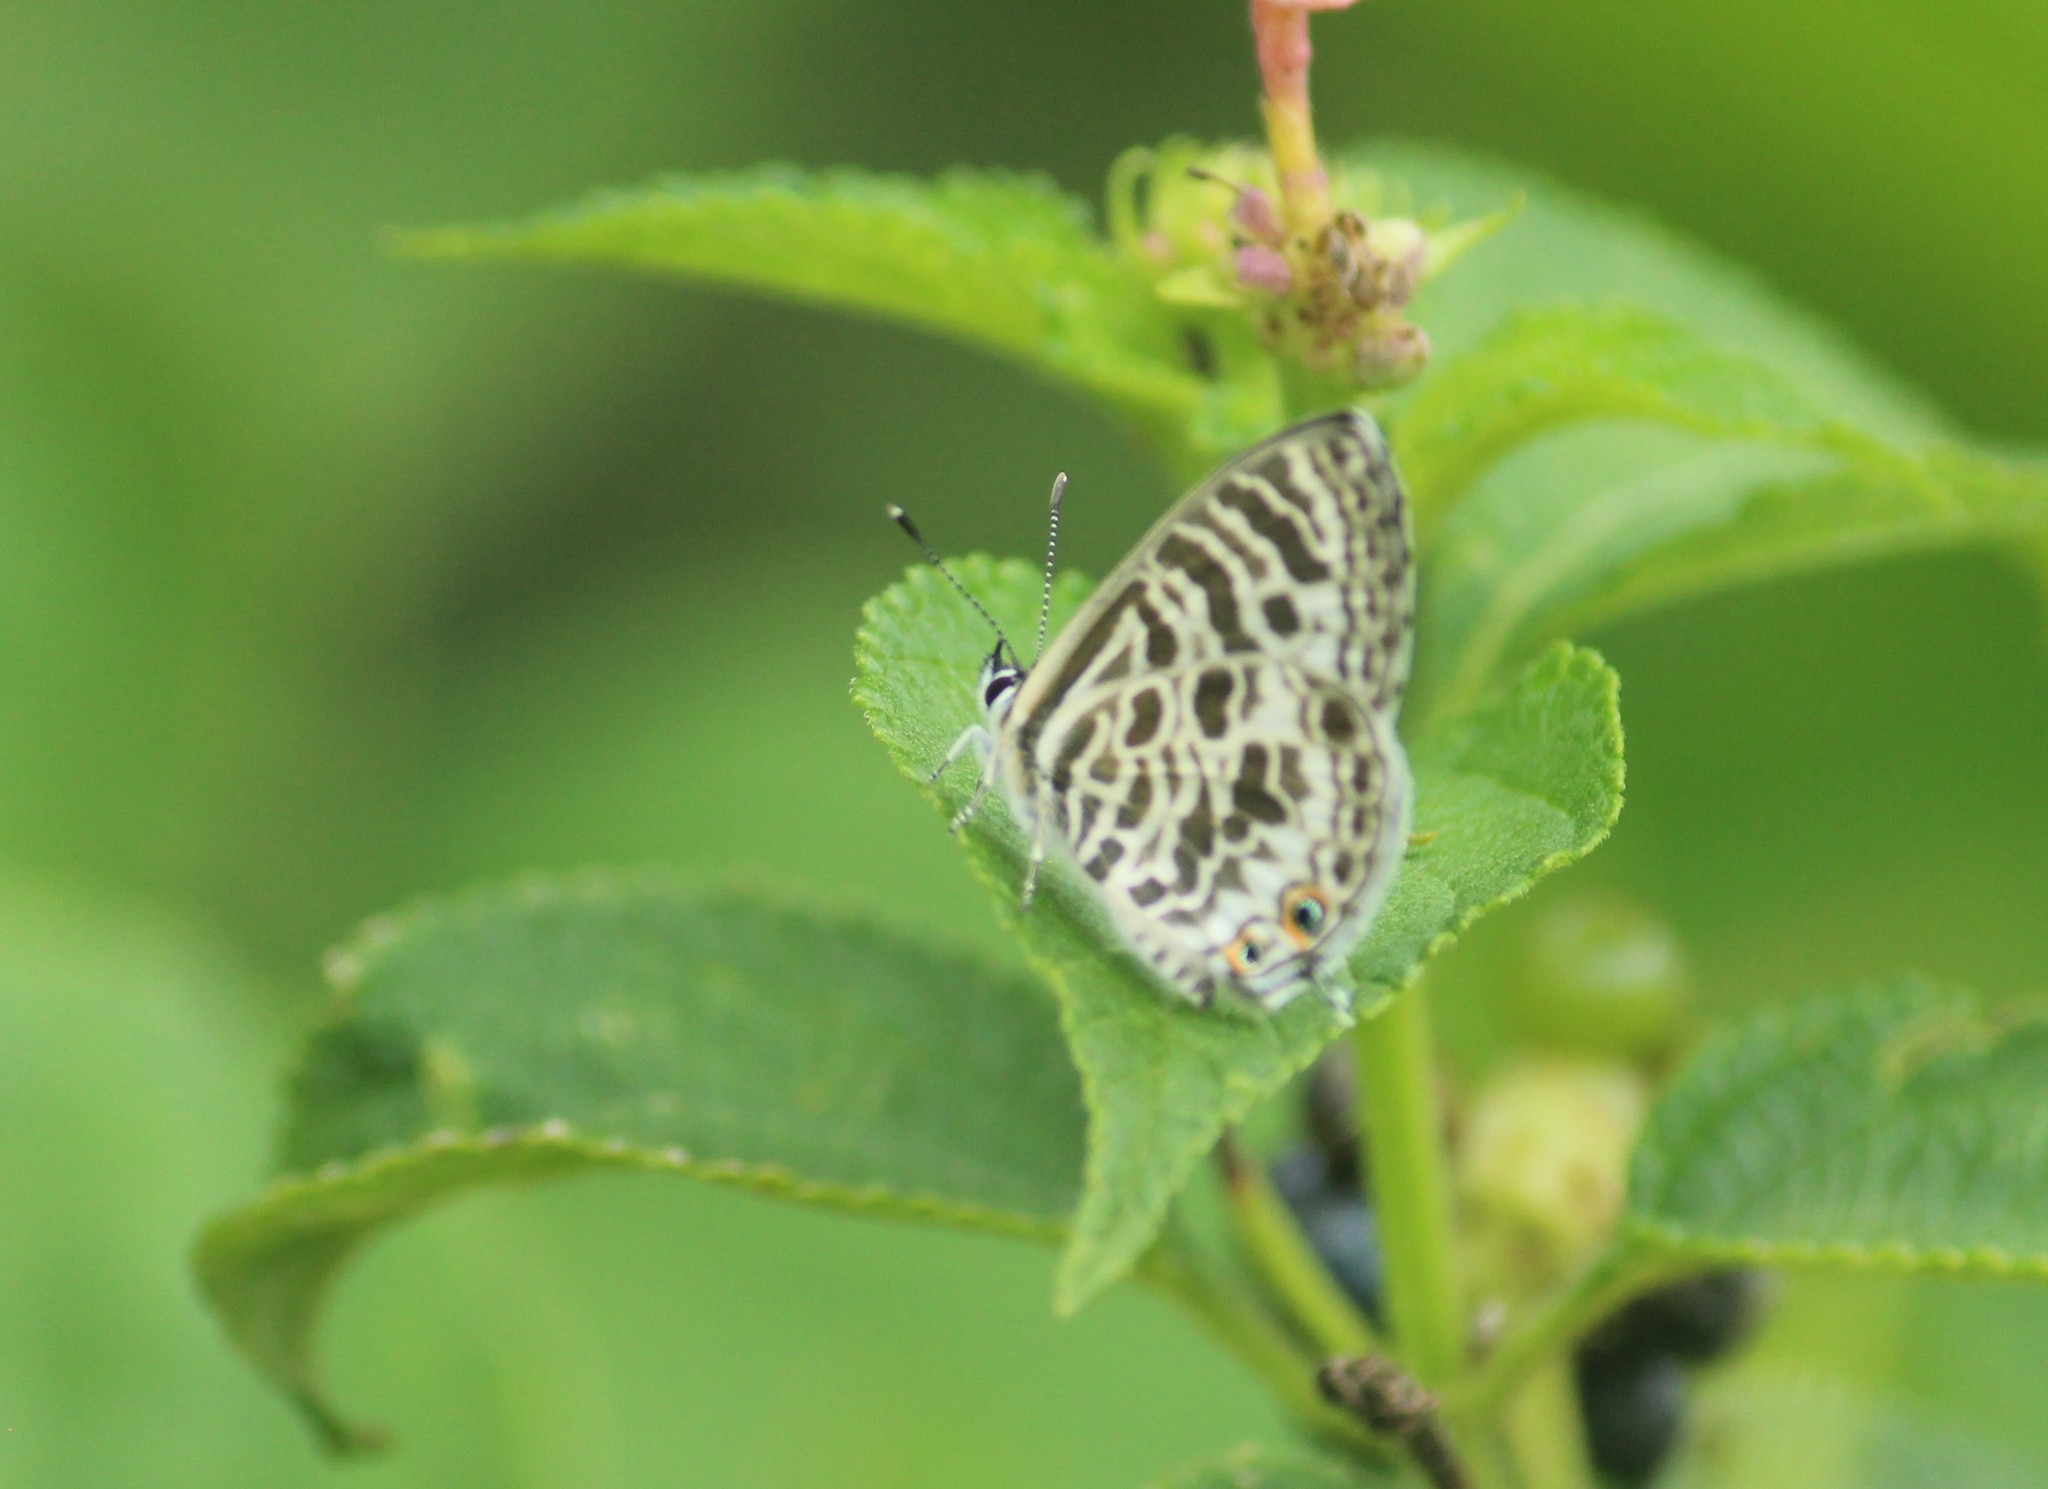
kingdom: Animalia
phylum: Arthropoda
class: Insecta
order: Lepidoptera
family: Lycaenidae
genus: Leptotes
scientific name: Leptotes plinius
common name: Zebra blue
